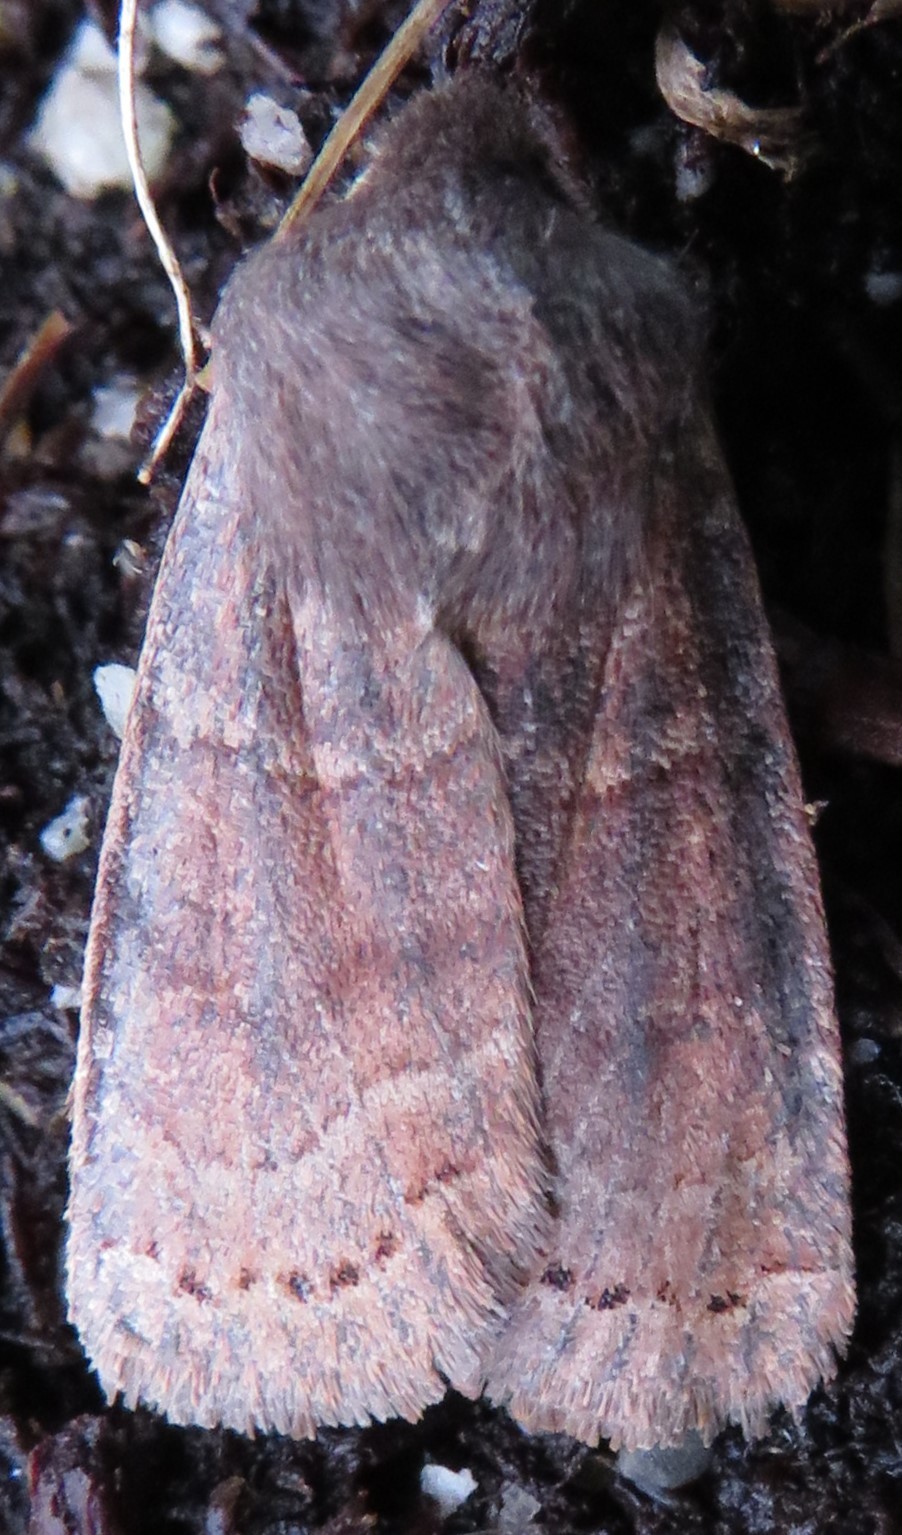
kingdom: Animalia
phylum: Arthropoda
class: Insecta
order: Lepidoptera
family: Noctuidae
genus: Homoglaea
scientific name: Homoglaea hircina
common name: Goat sallow
